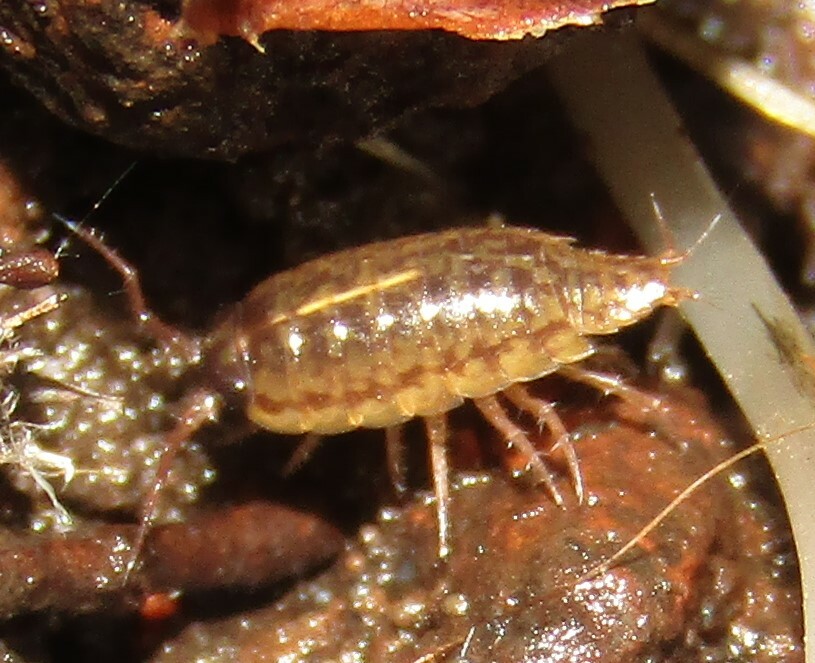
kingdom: Animalia
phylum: Arthropoda
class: Malacostraca
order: Isopoda
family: Ligiidae
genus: Ligidium
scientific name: Ligidium hypnorum
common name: Moss slater
